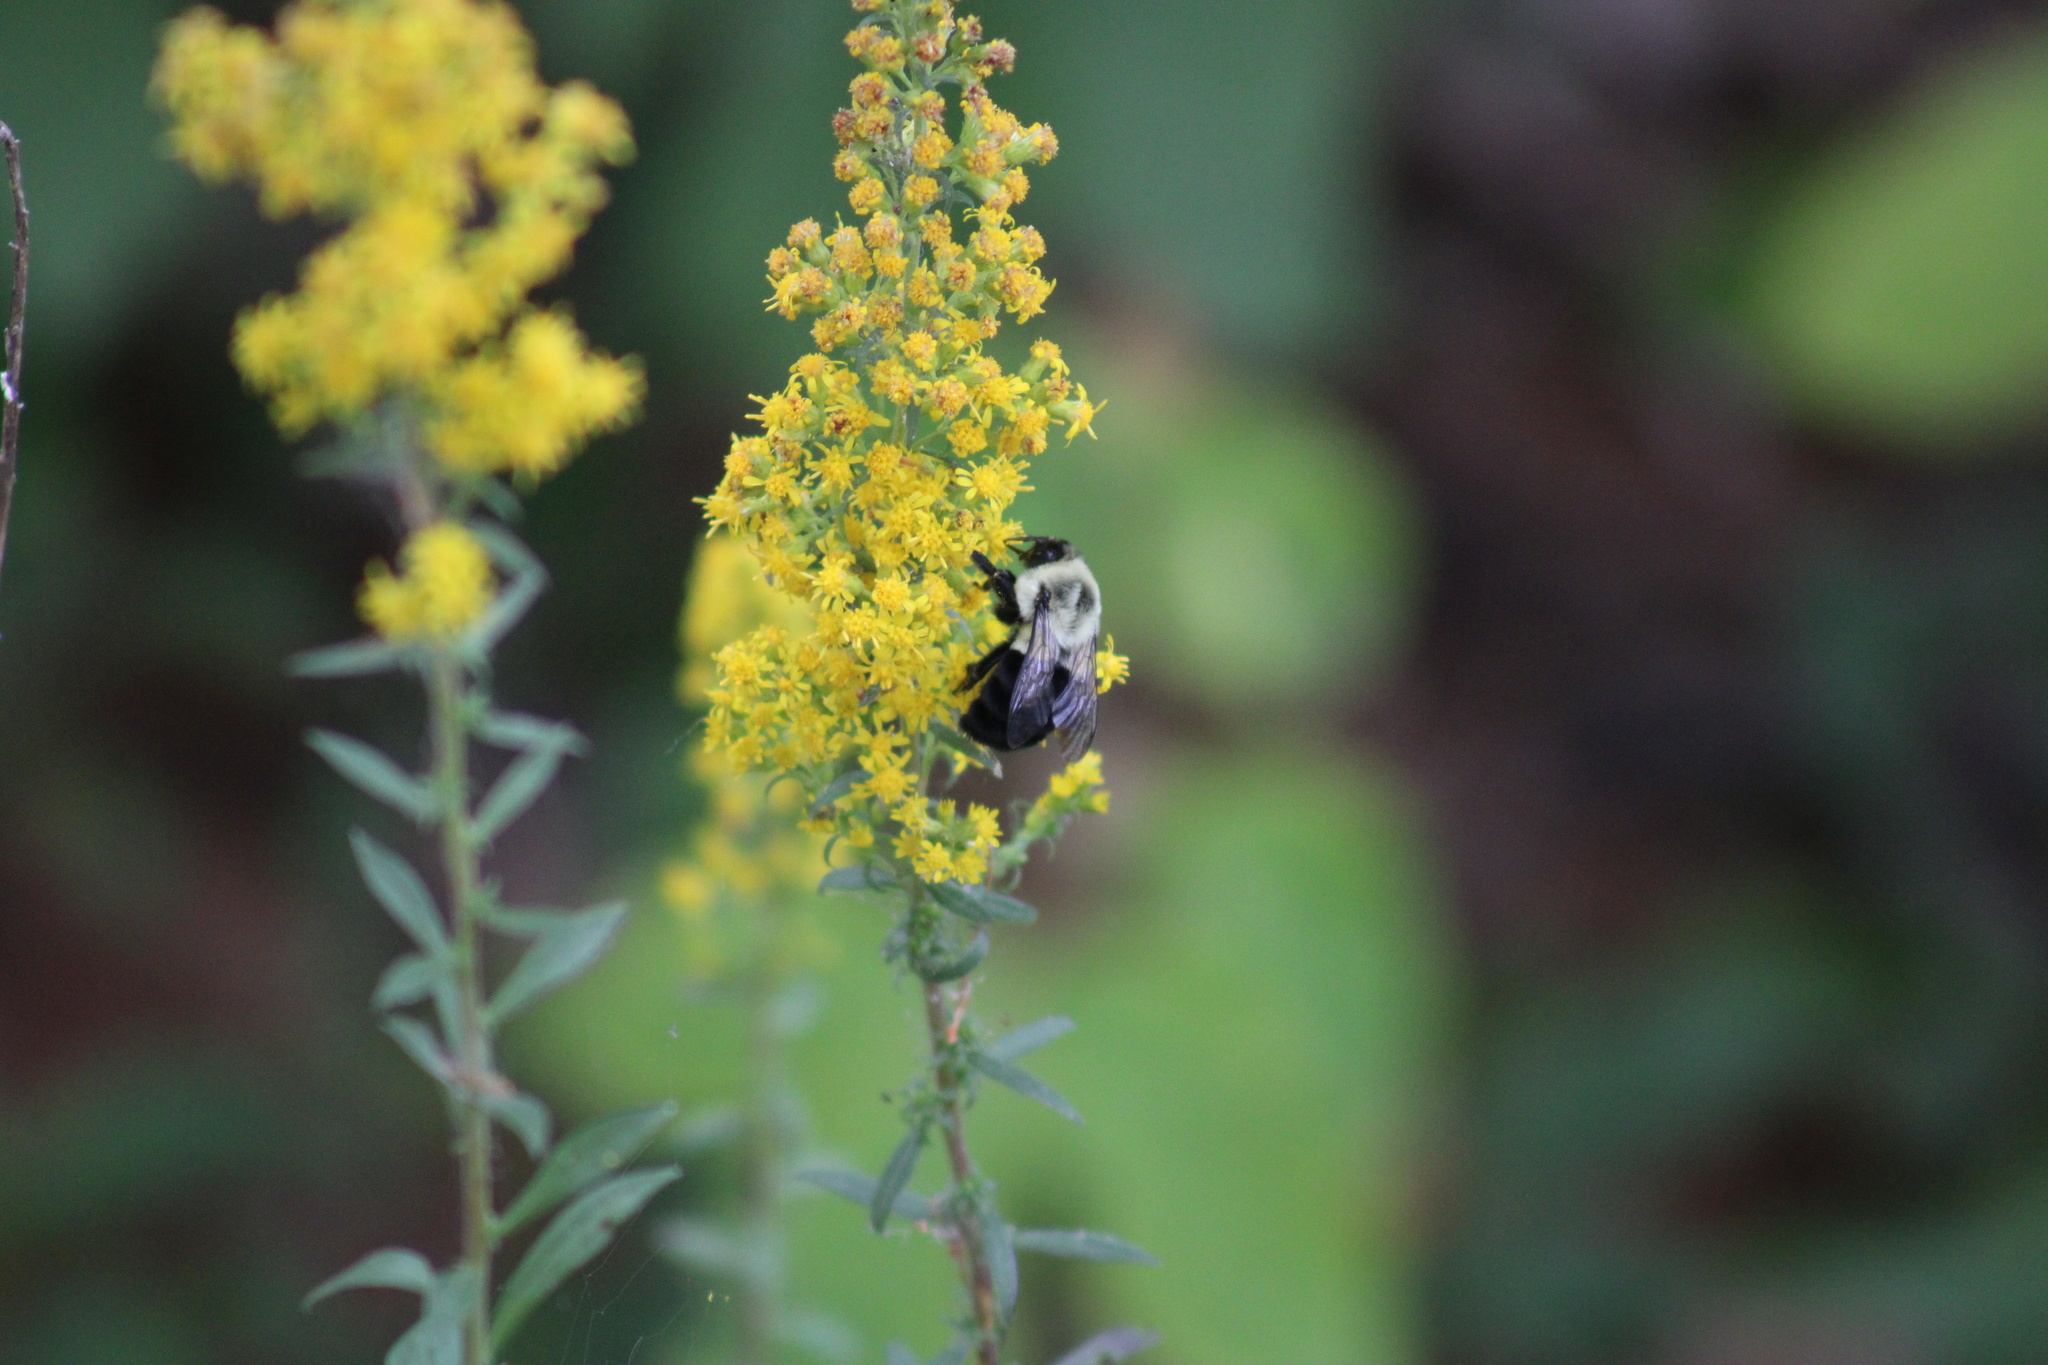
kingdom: Animalia
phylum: Arthropoda
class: Insecta
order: Hymenoptera
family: Apidae
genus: Bombus
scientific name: Bombus impatiens
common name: Common eastern bumble bee
